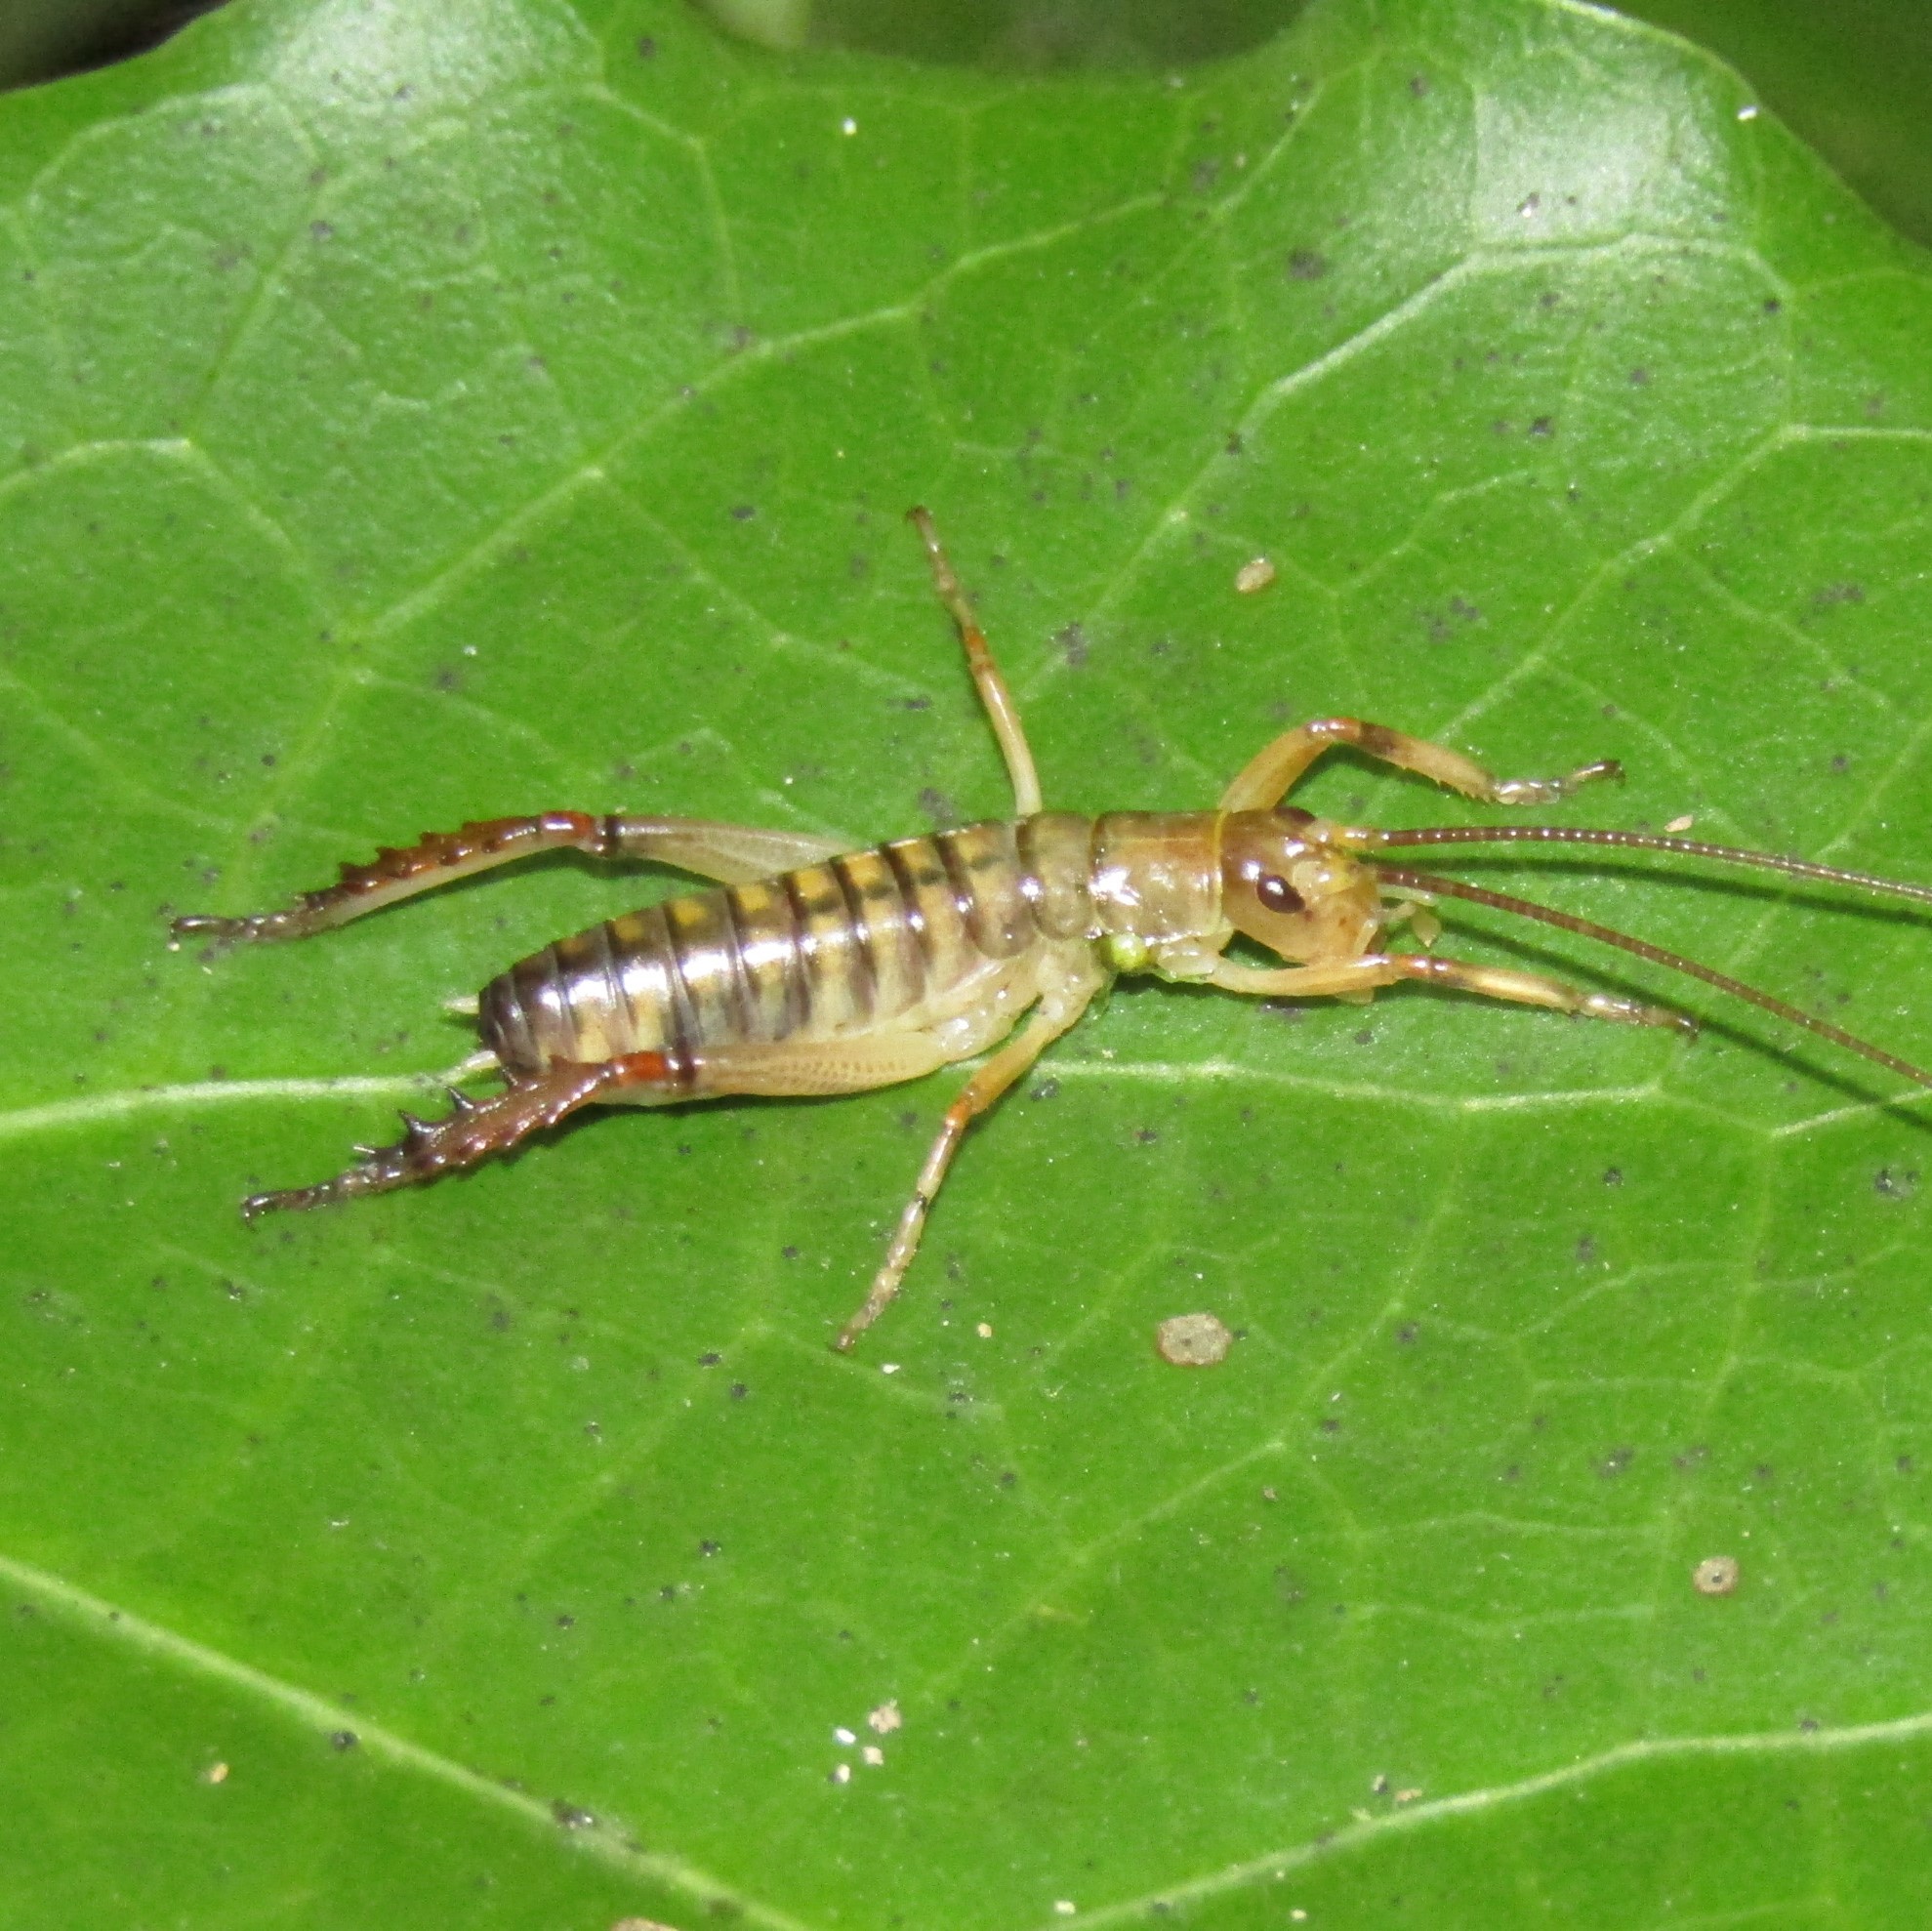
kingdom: Animalia
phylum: Arthropoda
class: Insecta
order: Orthoptera
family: Anostostomatidae
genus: Hemideina
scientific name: Hemideina crassidens
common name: Wellington tree weta
